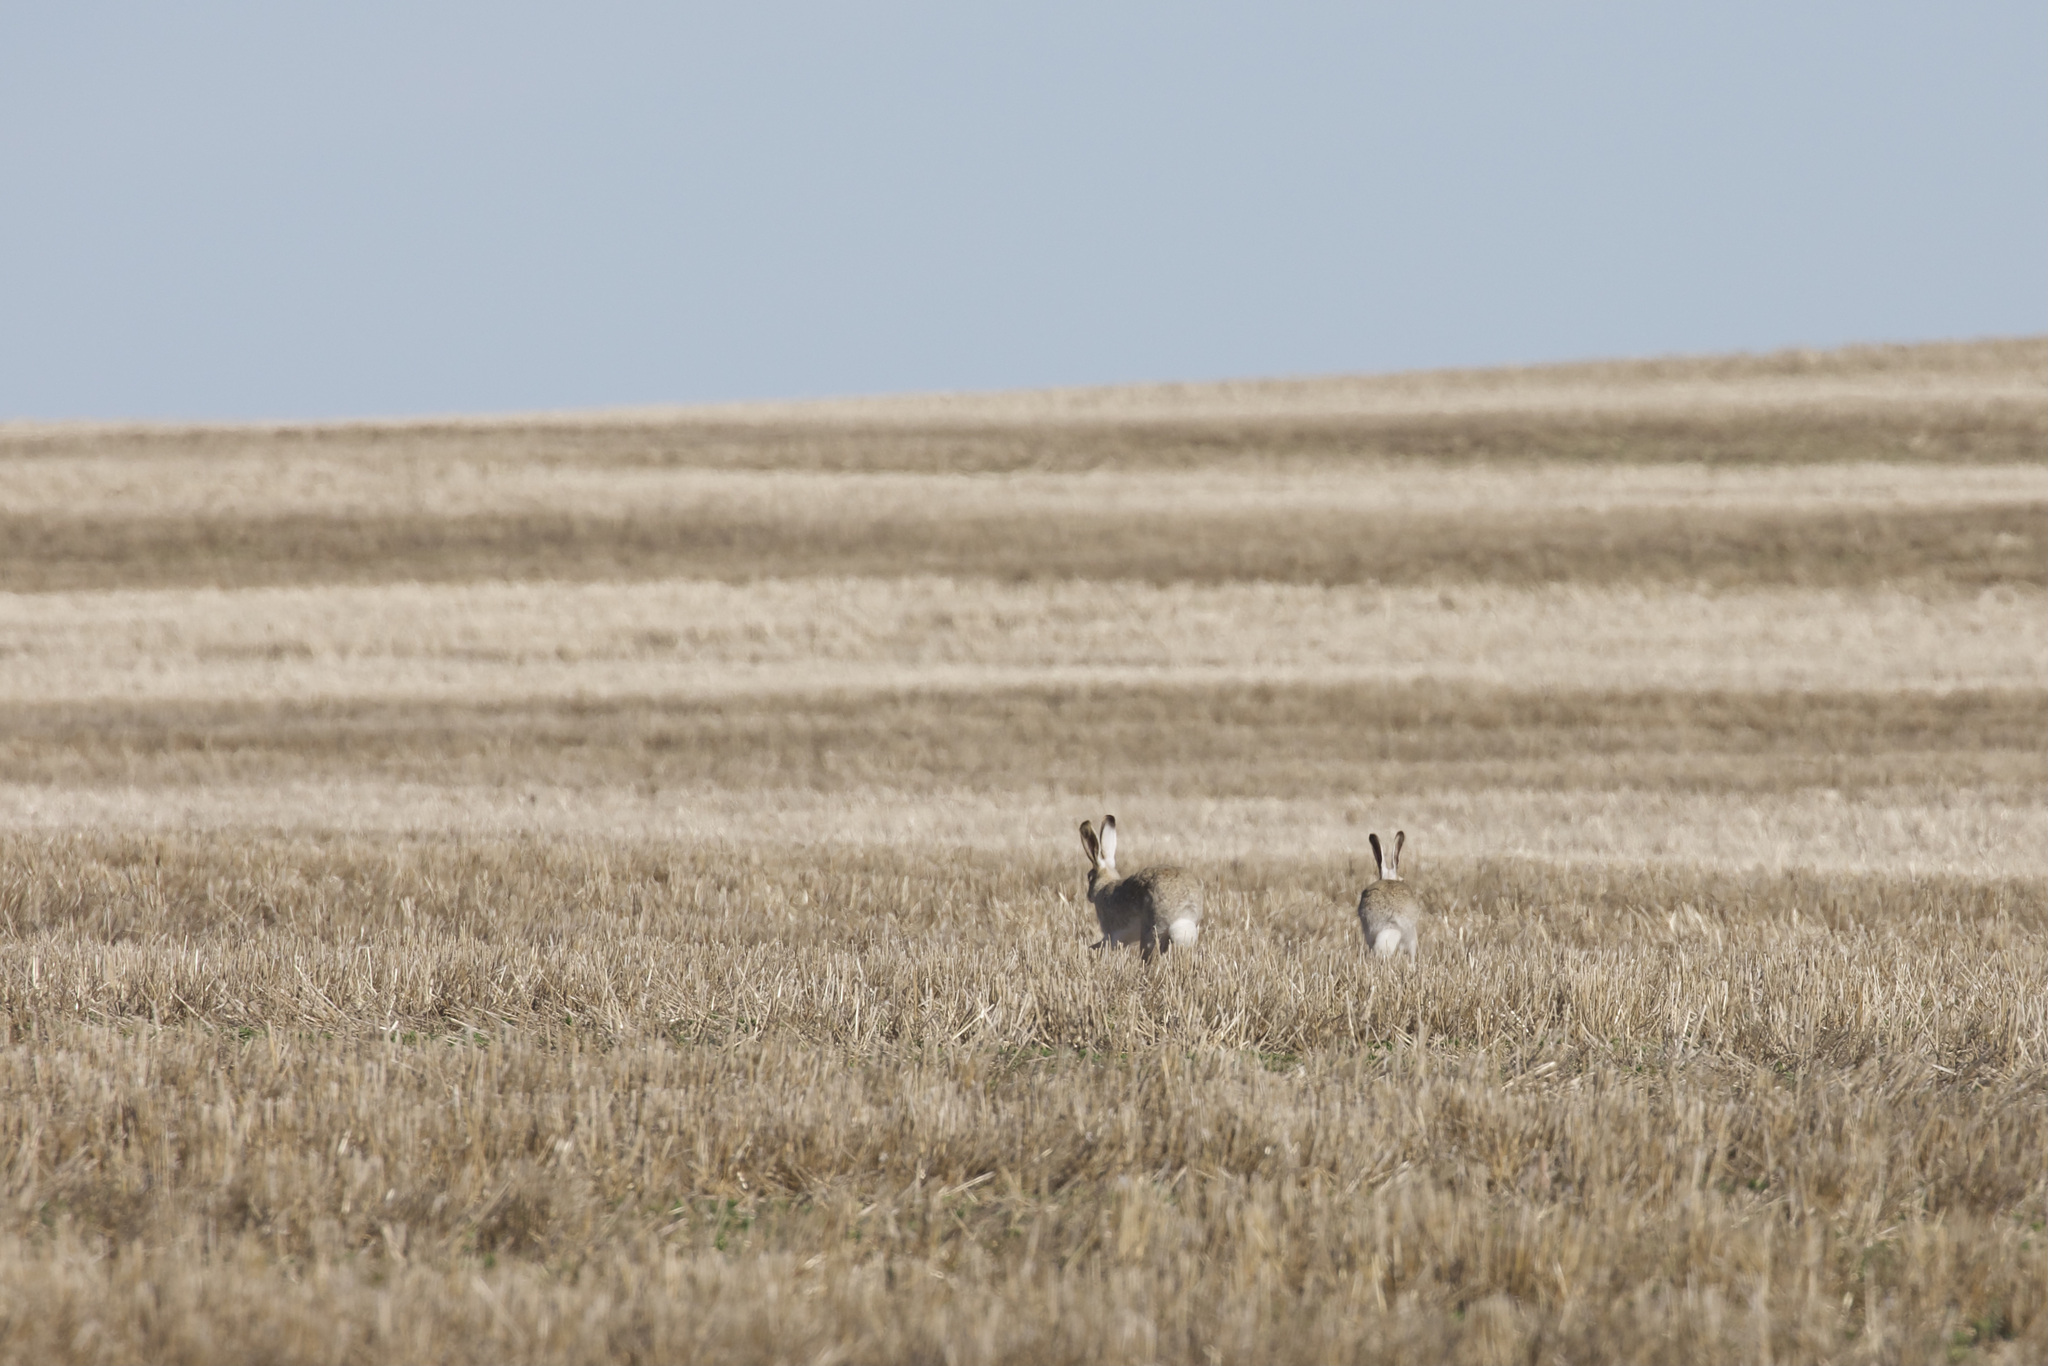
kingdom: Animalia
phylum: Chordata
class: Mammalia
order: Lagomorpha
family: Leporidae
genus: Lepus
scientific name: Lepus townsendii
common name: White-tailed jackrabbit
